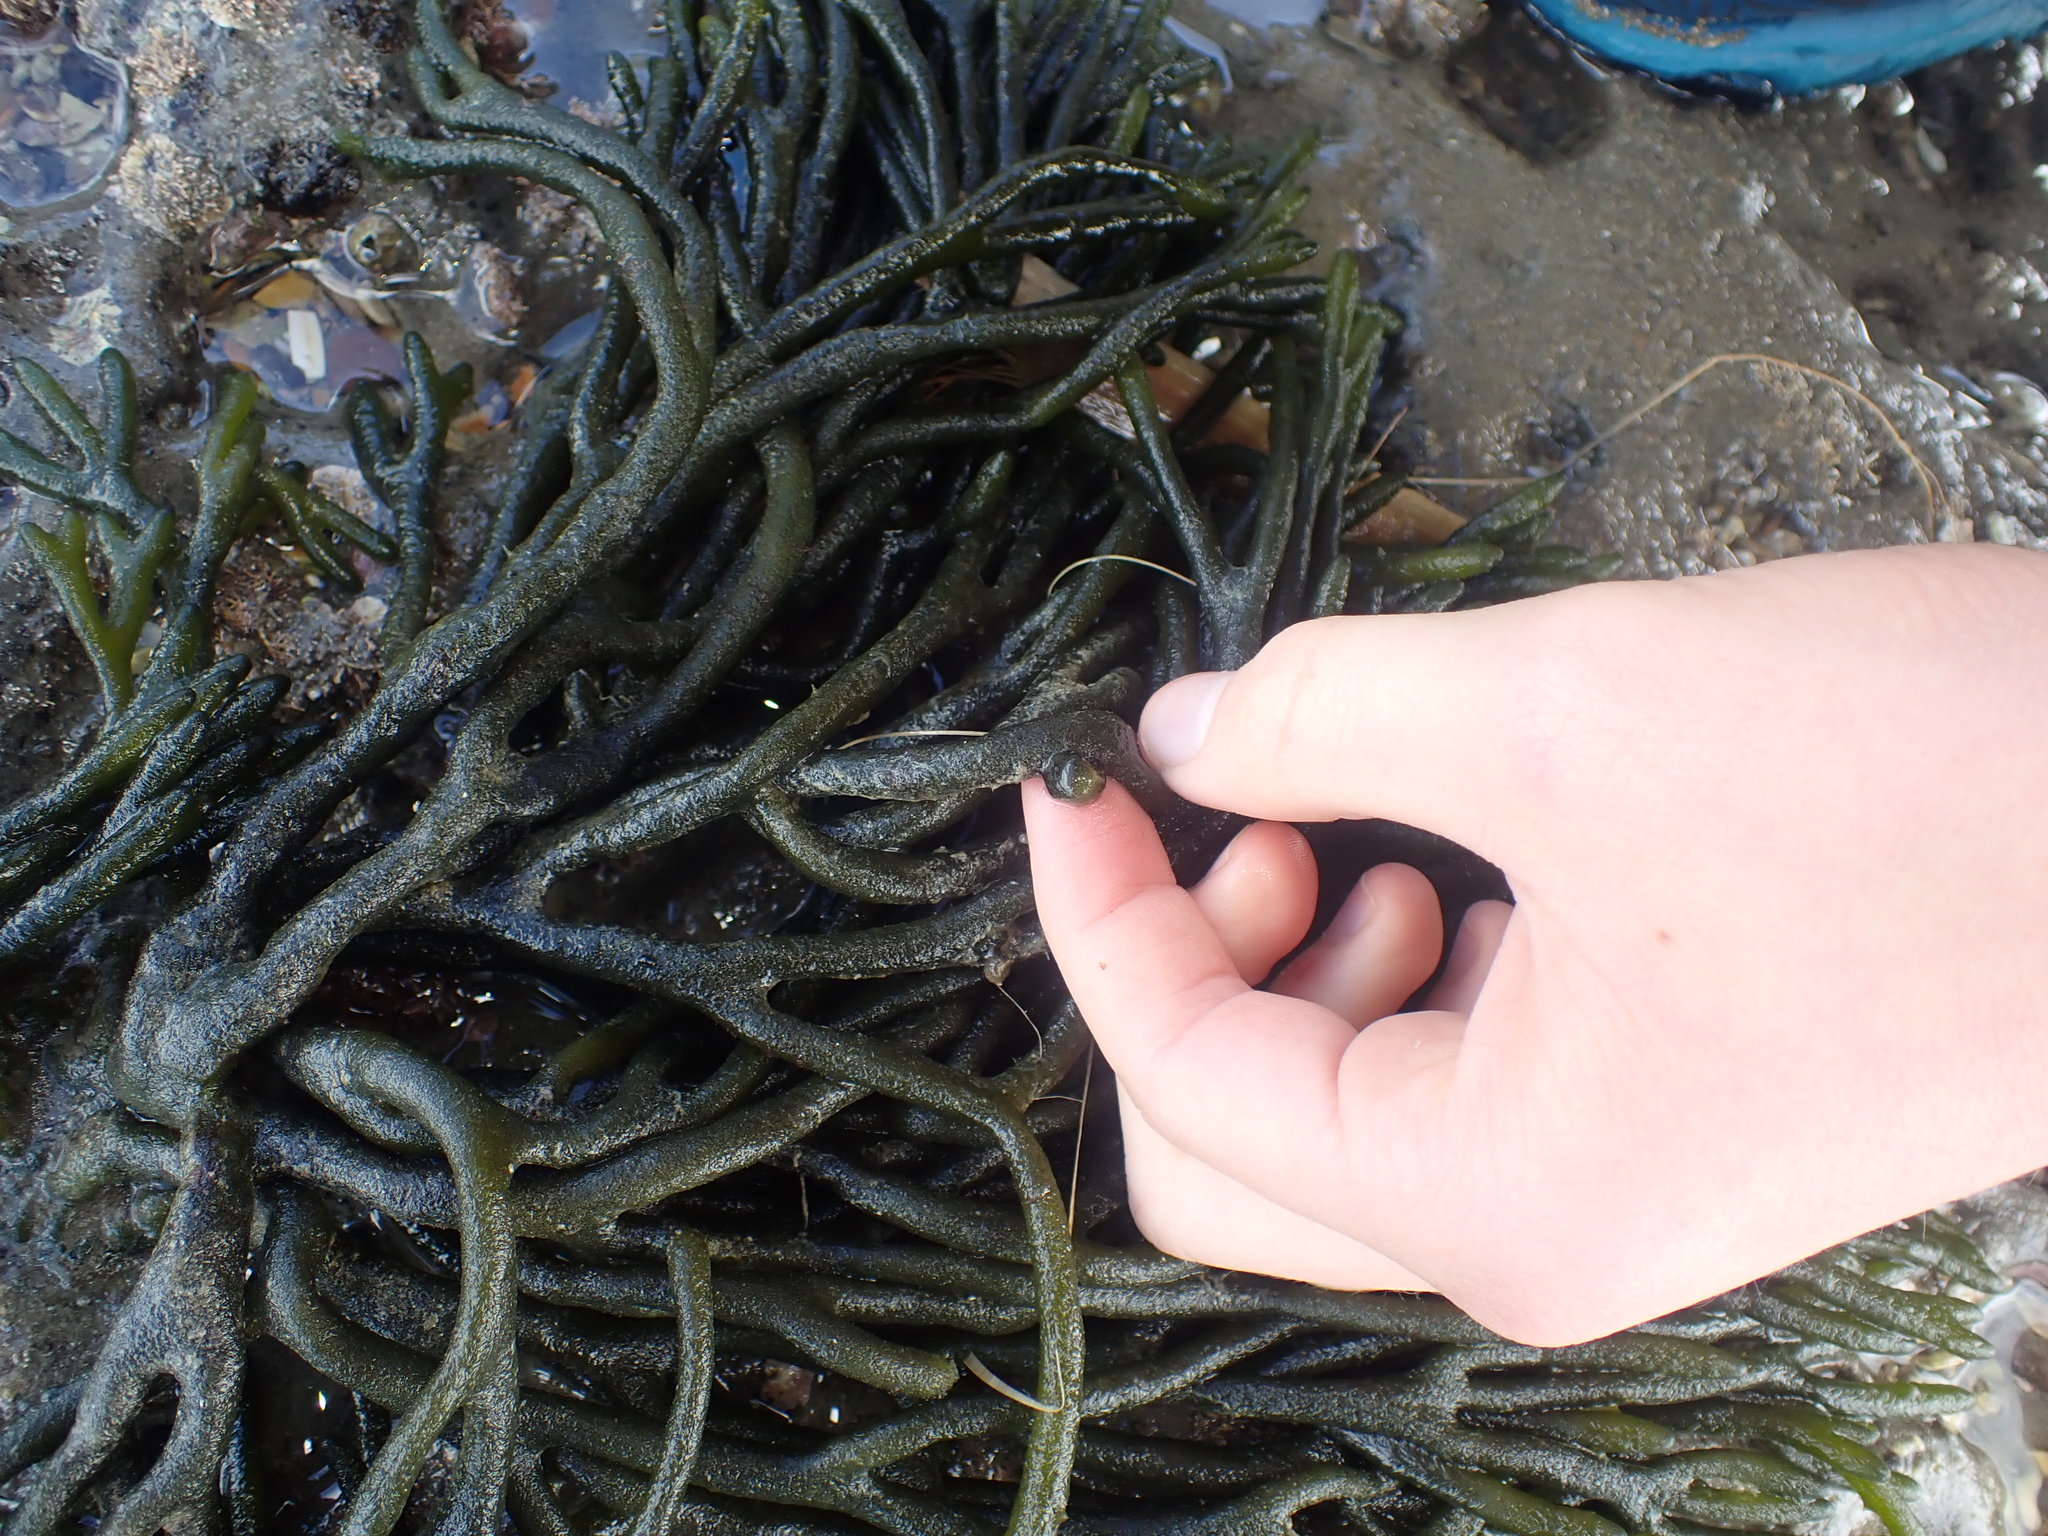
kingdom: Animalia
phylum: Mollusca
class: Gastropoda
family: Plakobranchidae
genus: Elysia
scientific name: Elysia maoria
